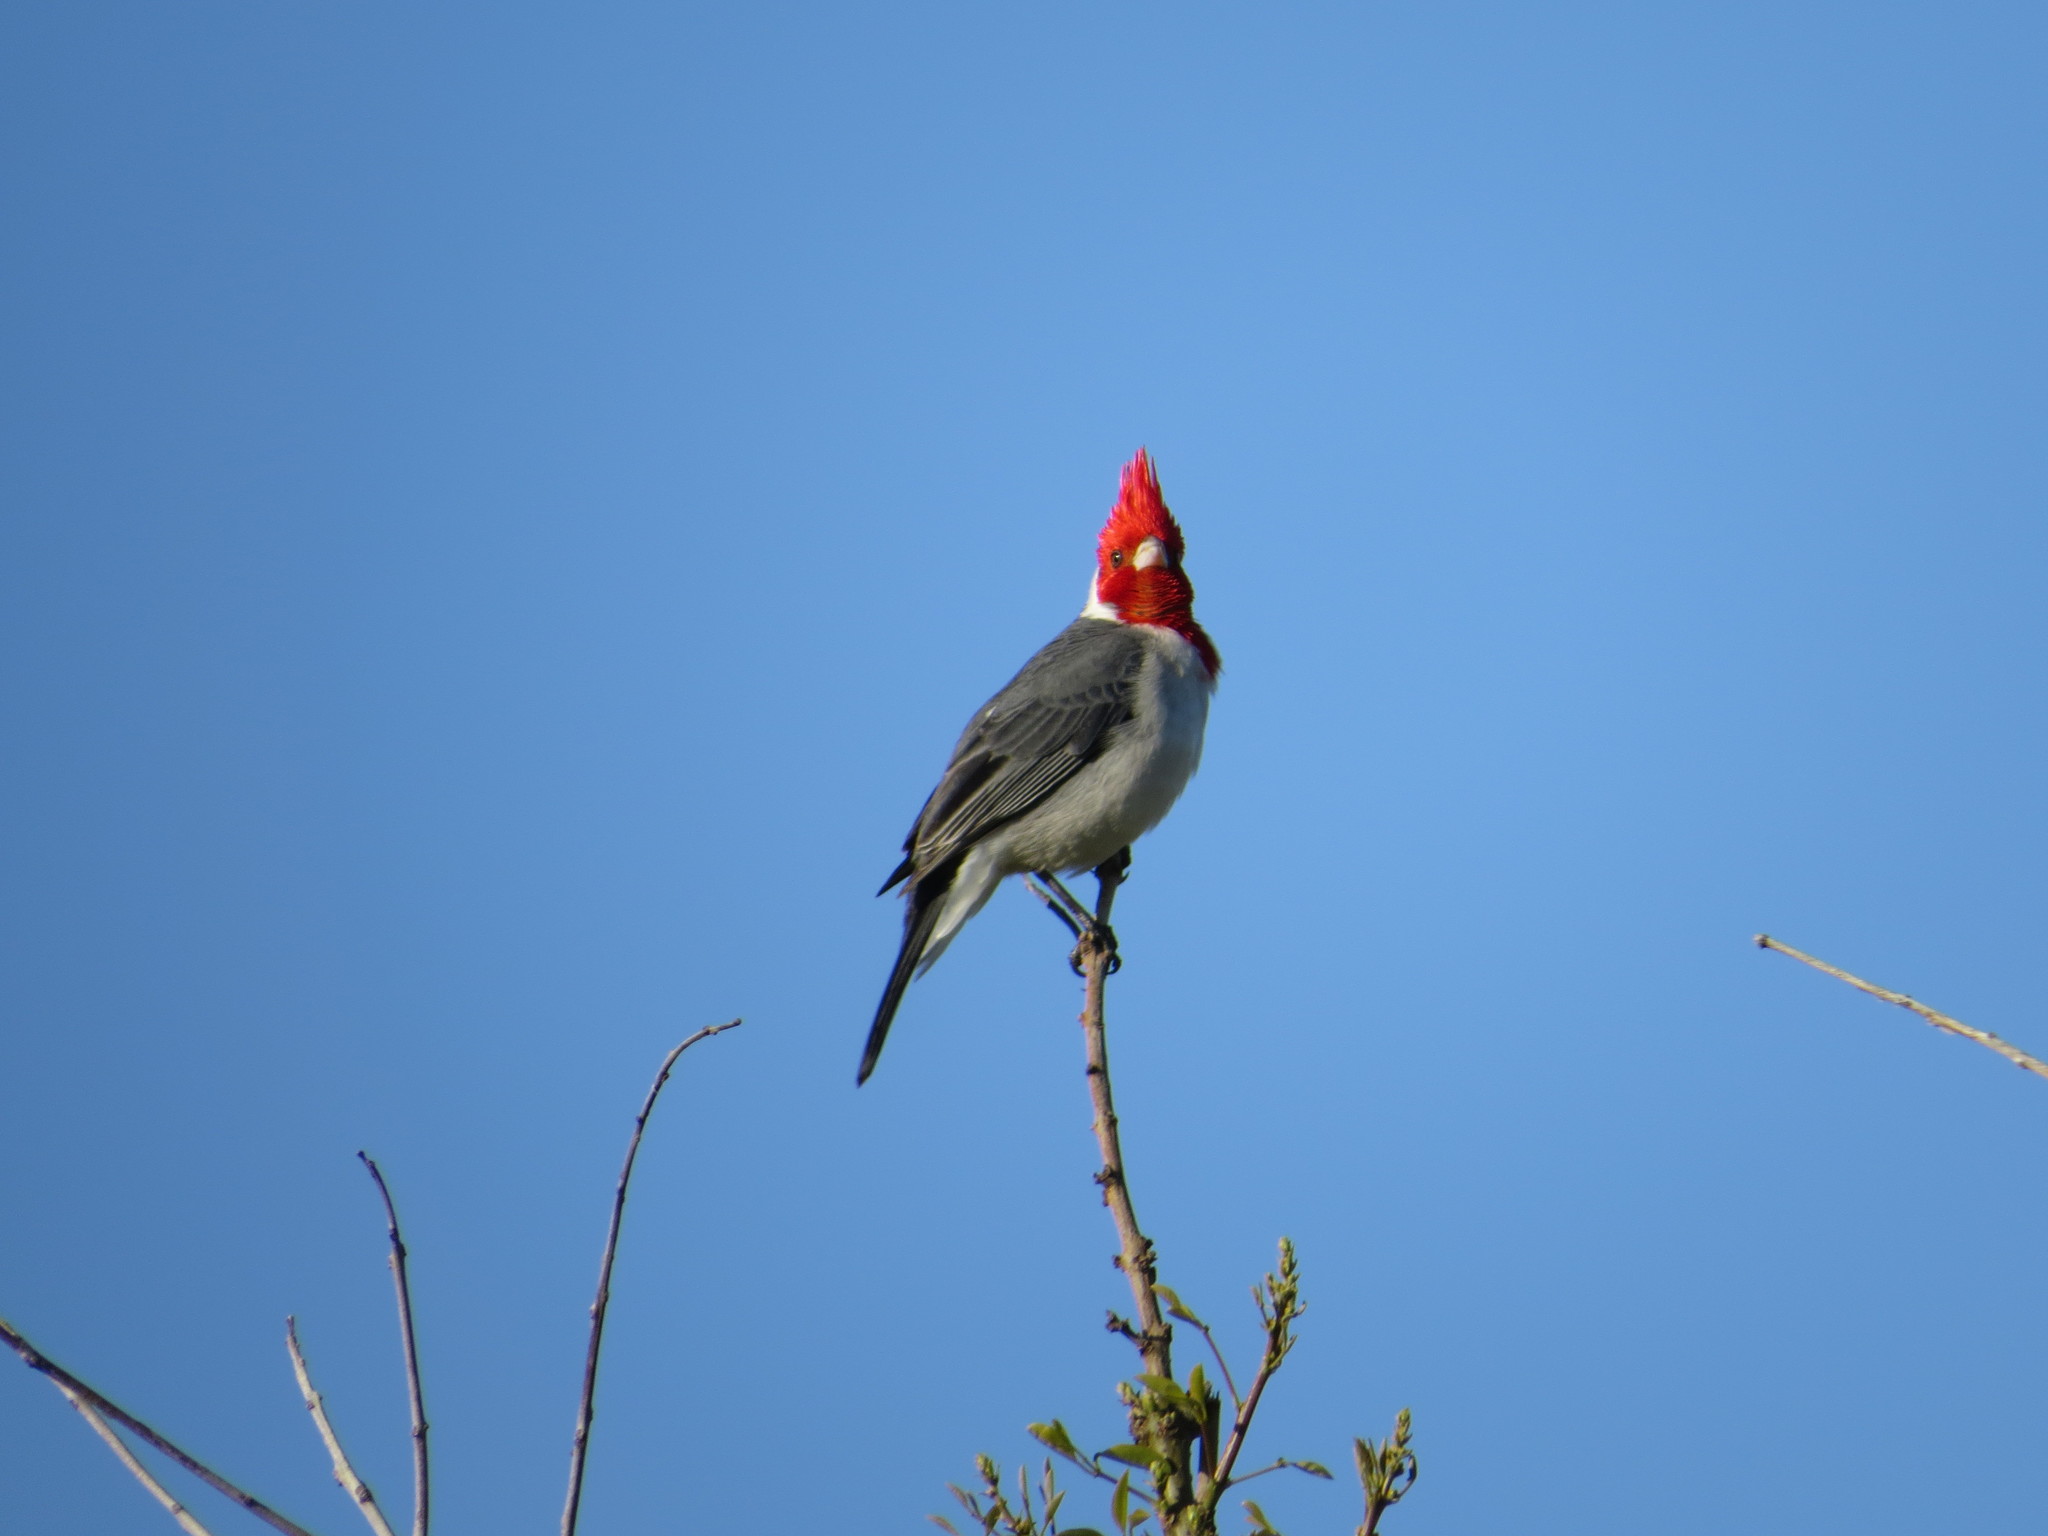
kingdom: Animalia
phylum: Chordata
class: Aves
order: Passeriformes
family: Thraupidae
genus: Paroaria
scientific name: Paroaria coronata
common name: Red-crested cardinal
